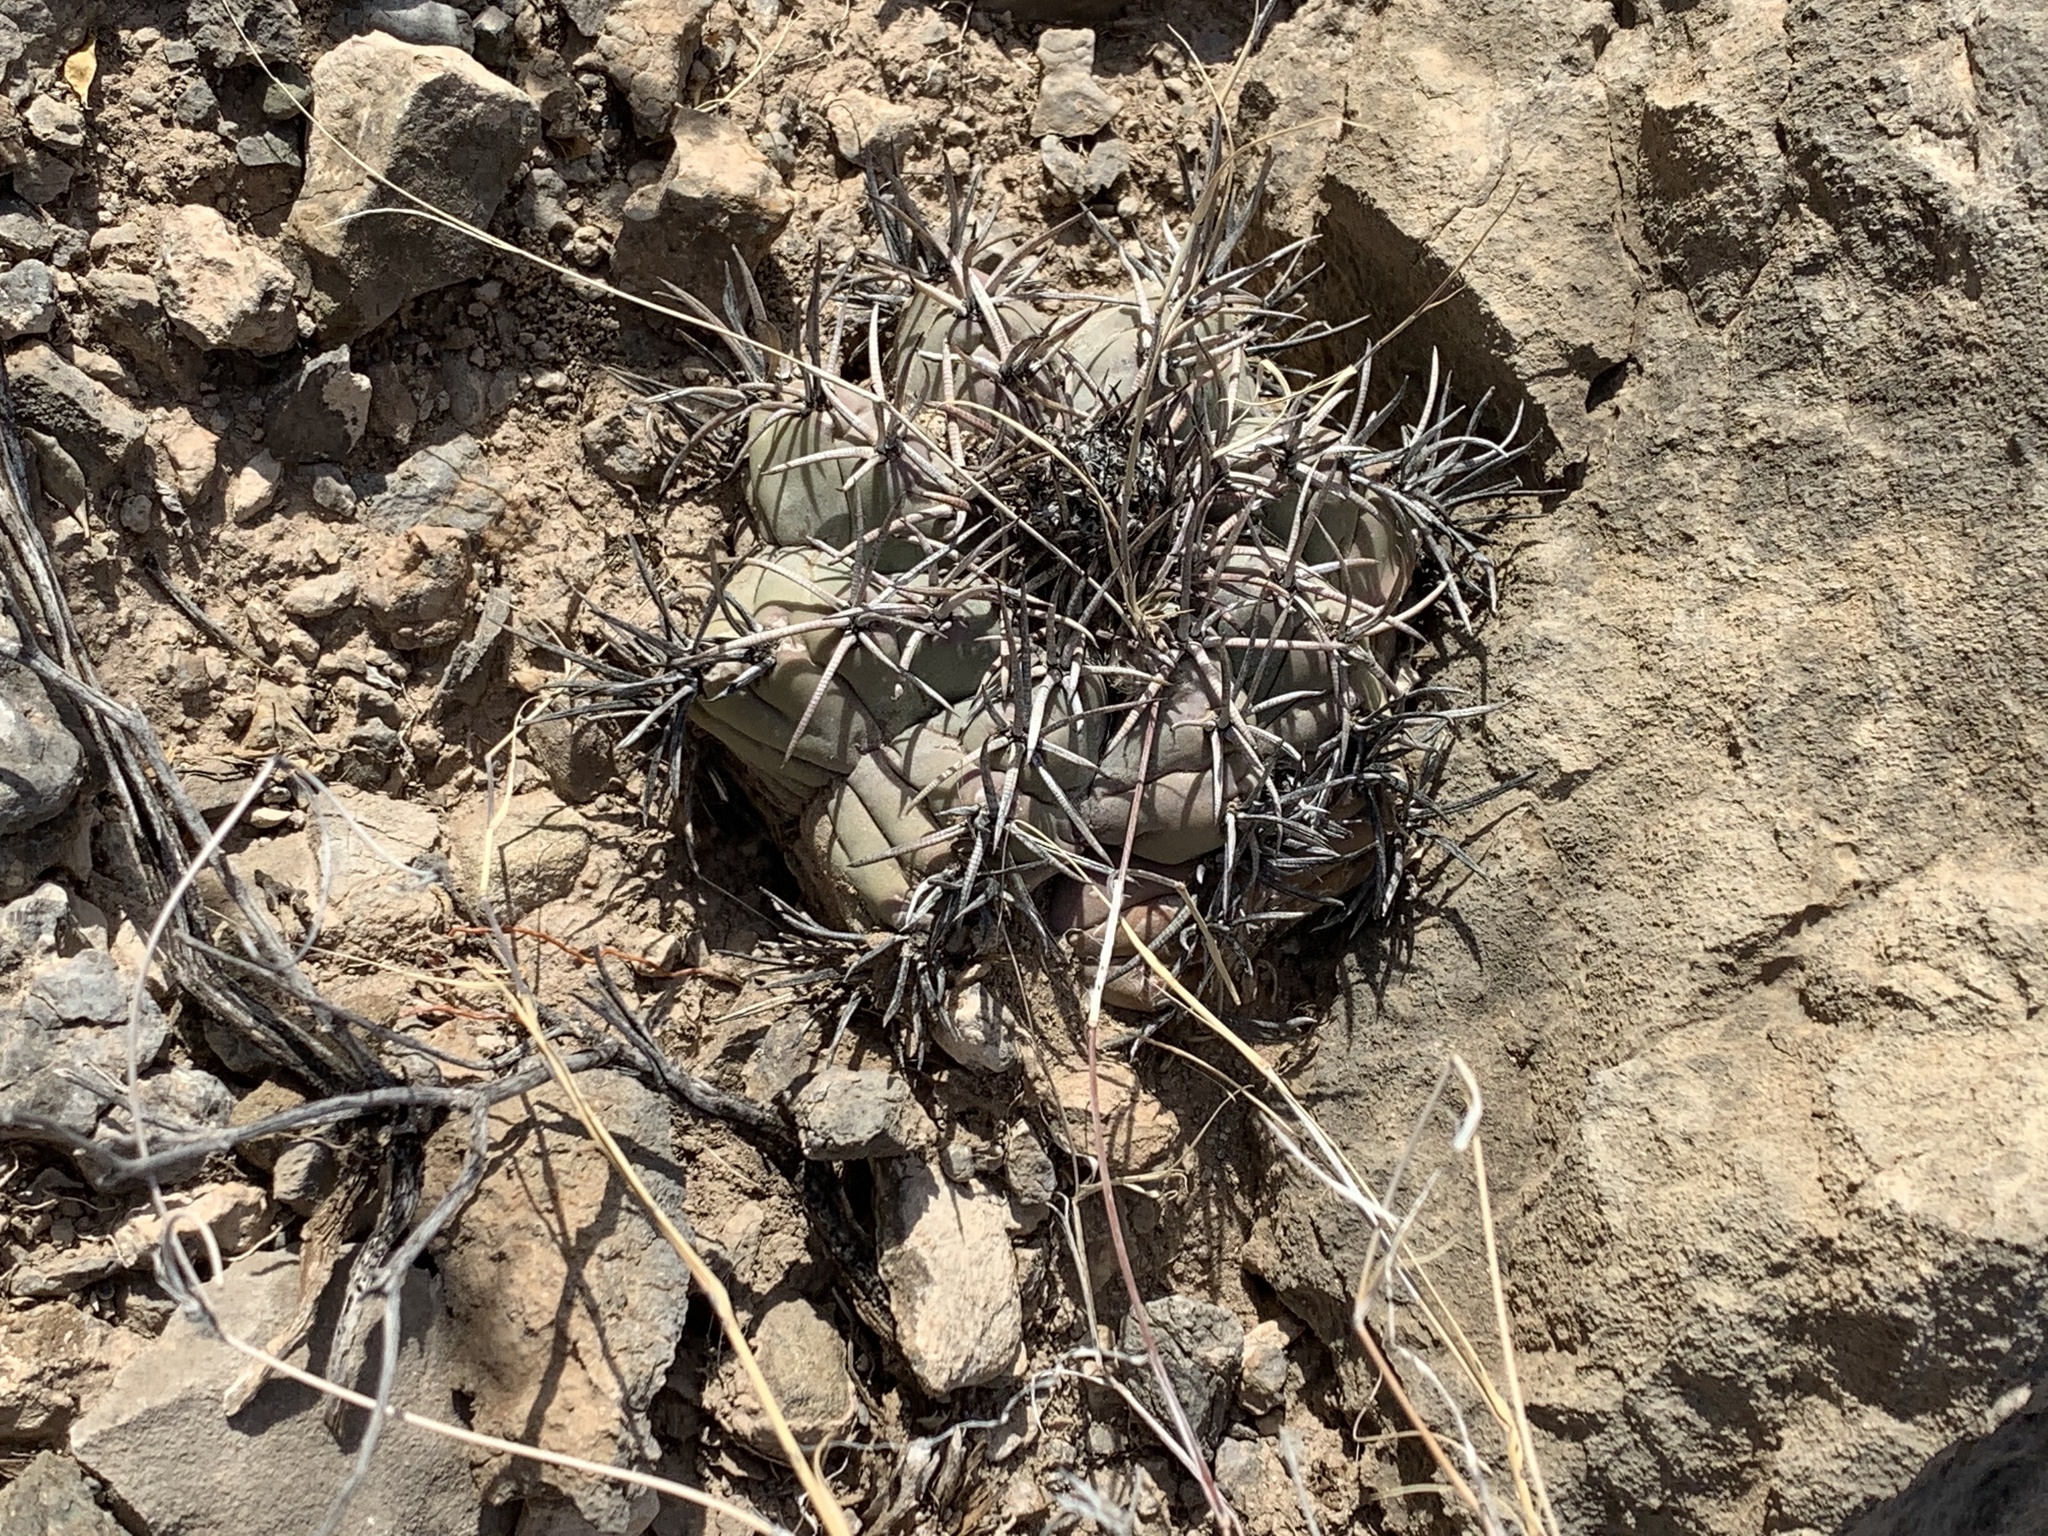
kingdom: Plantae
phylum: Tracheophyta
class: Magnoliopsida
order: Caryophyllales
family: Cactaceae
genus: Echinocactus
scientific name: Echinocactus horizonthalonius
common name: Devilshead
